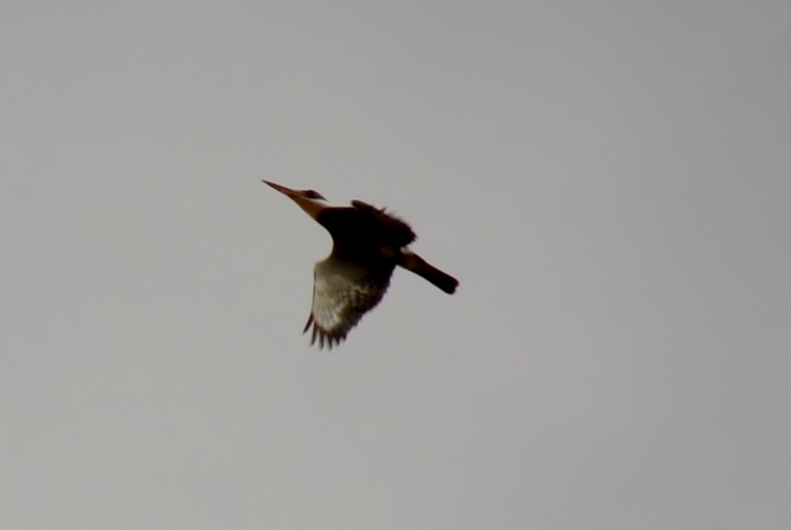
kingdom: Animalia
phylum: Chordata
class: Aves
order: Coraciiformes
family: Alcedinidae
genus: Megaceryle
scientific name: Megaceryle torquata
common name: Ringed kingfisher
